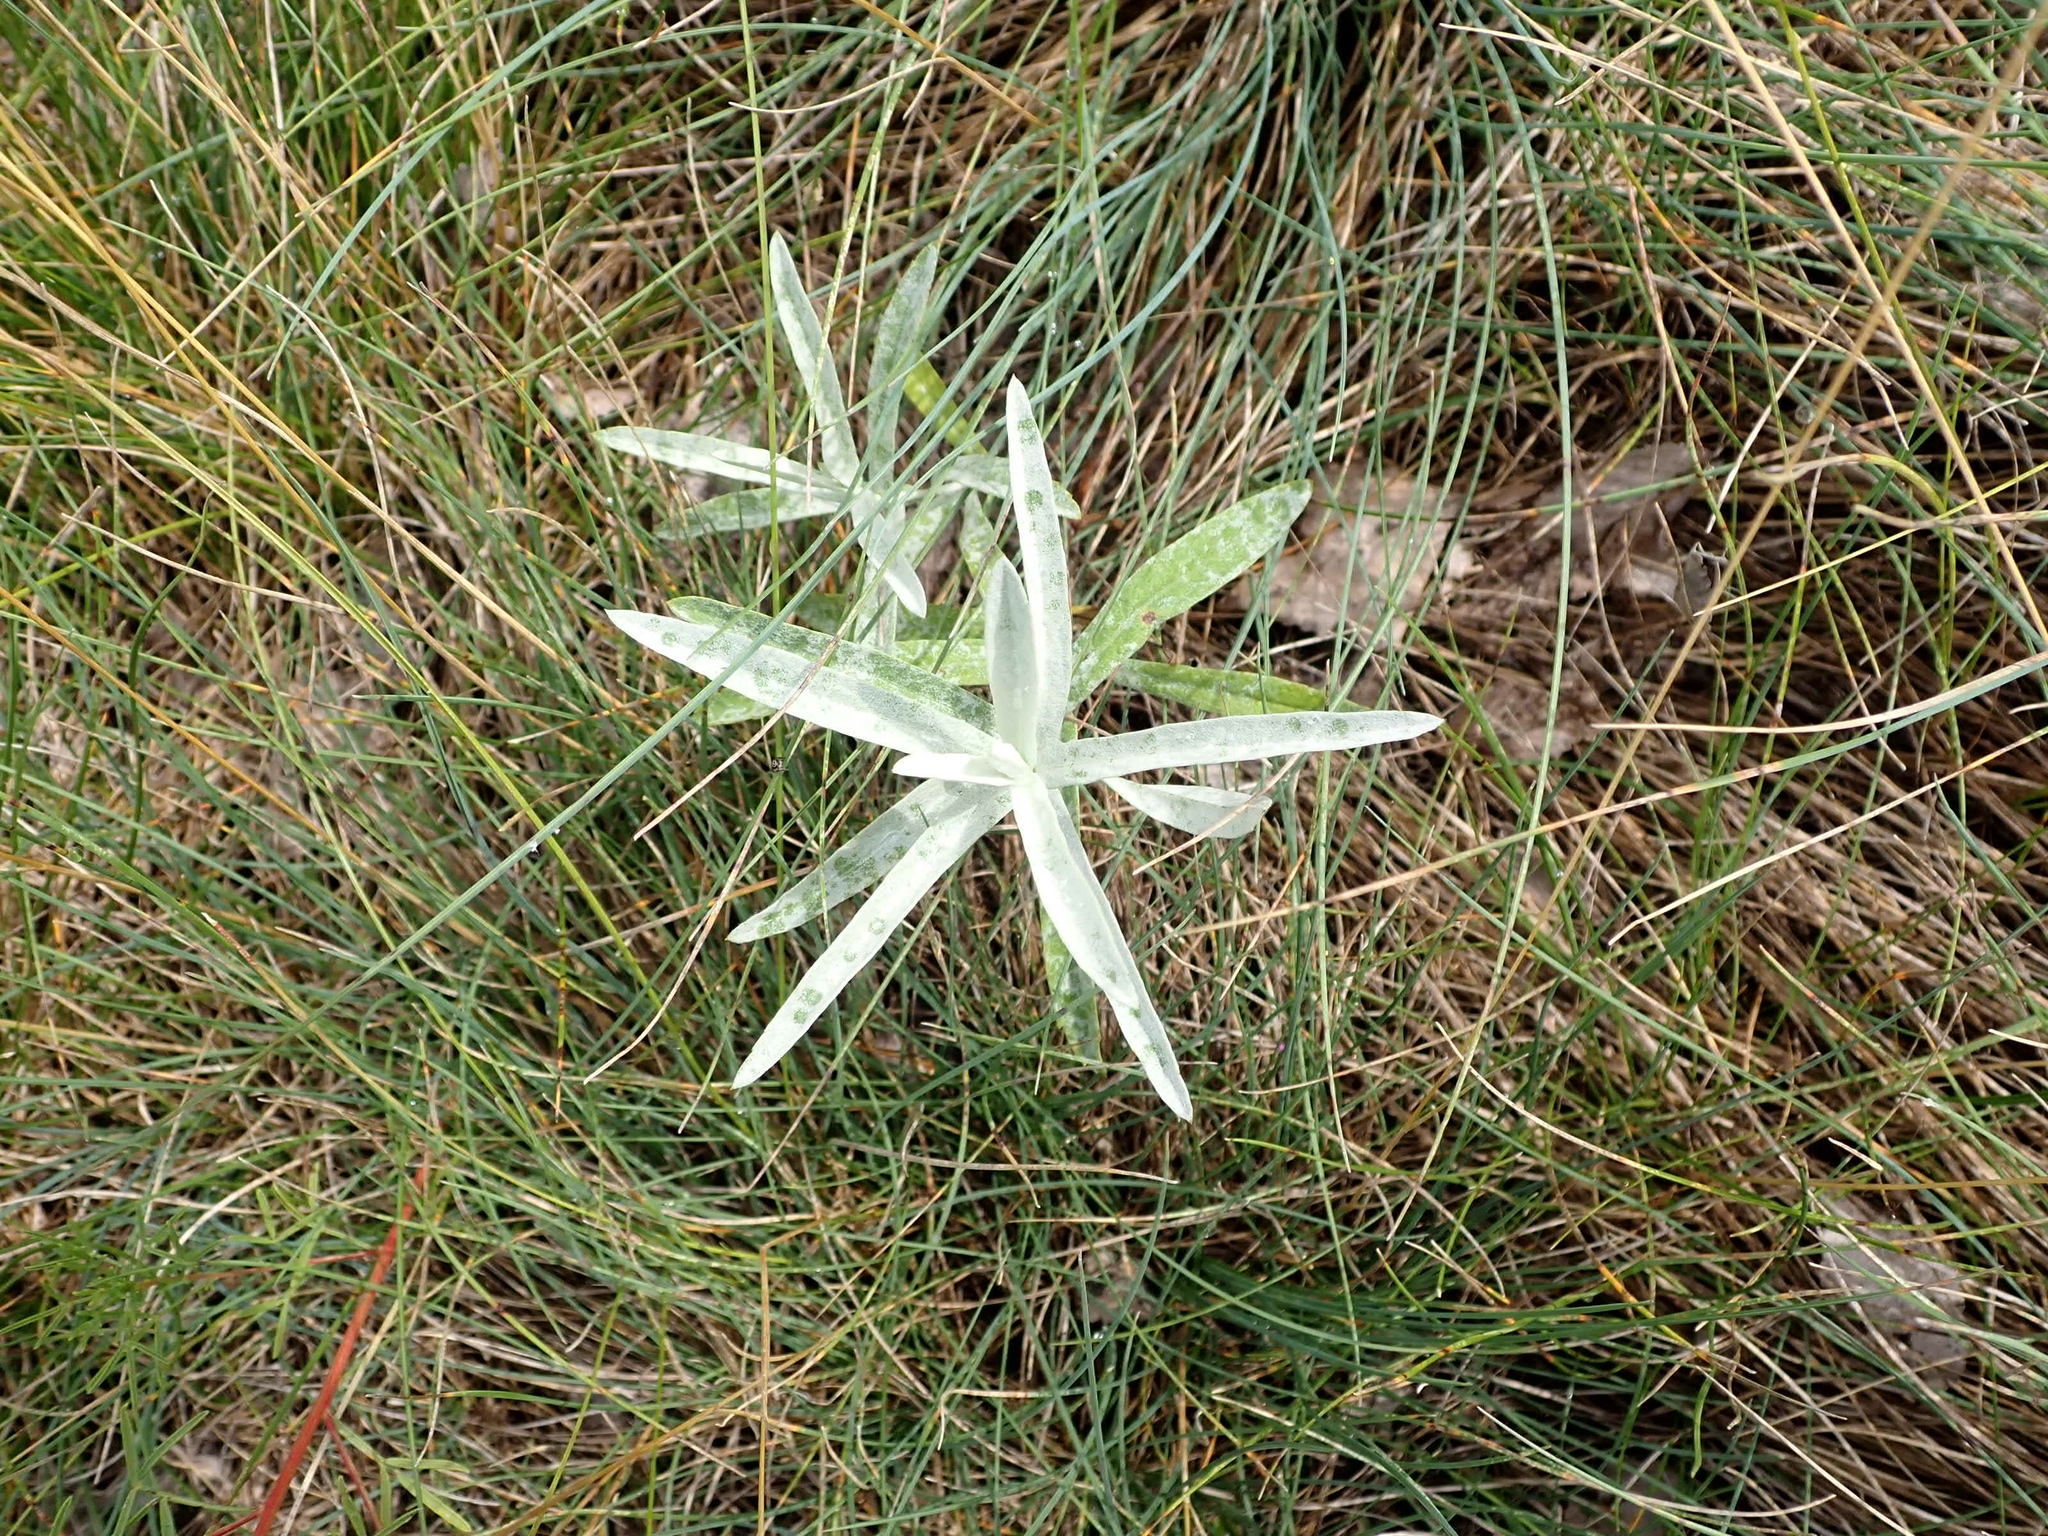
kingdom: Plantae
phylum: Tracheophyta
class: Magnoliopsida
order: Asterales
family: Asteraceae
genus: Artemisia
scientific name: Artemisia ludoviciana
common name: Western mugwort
